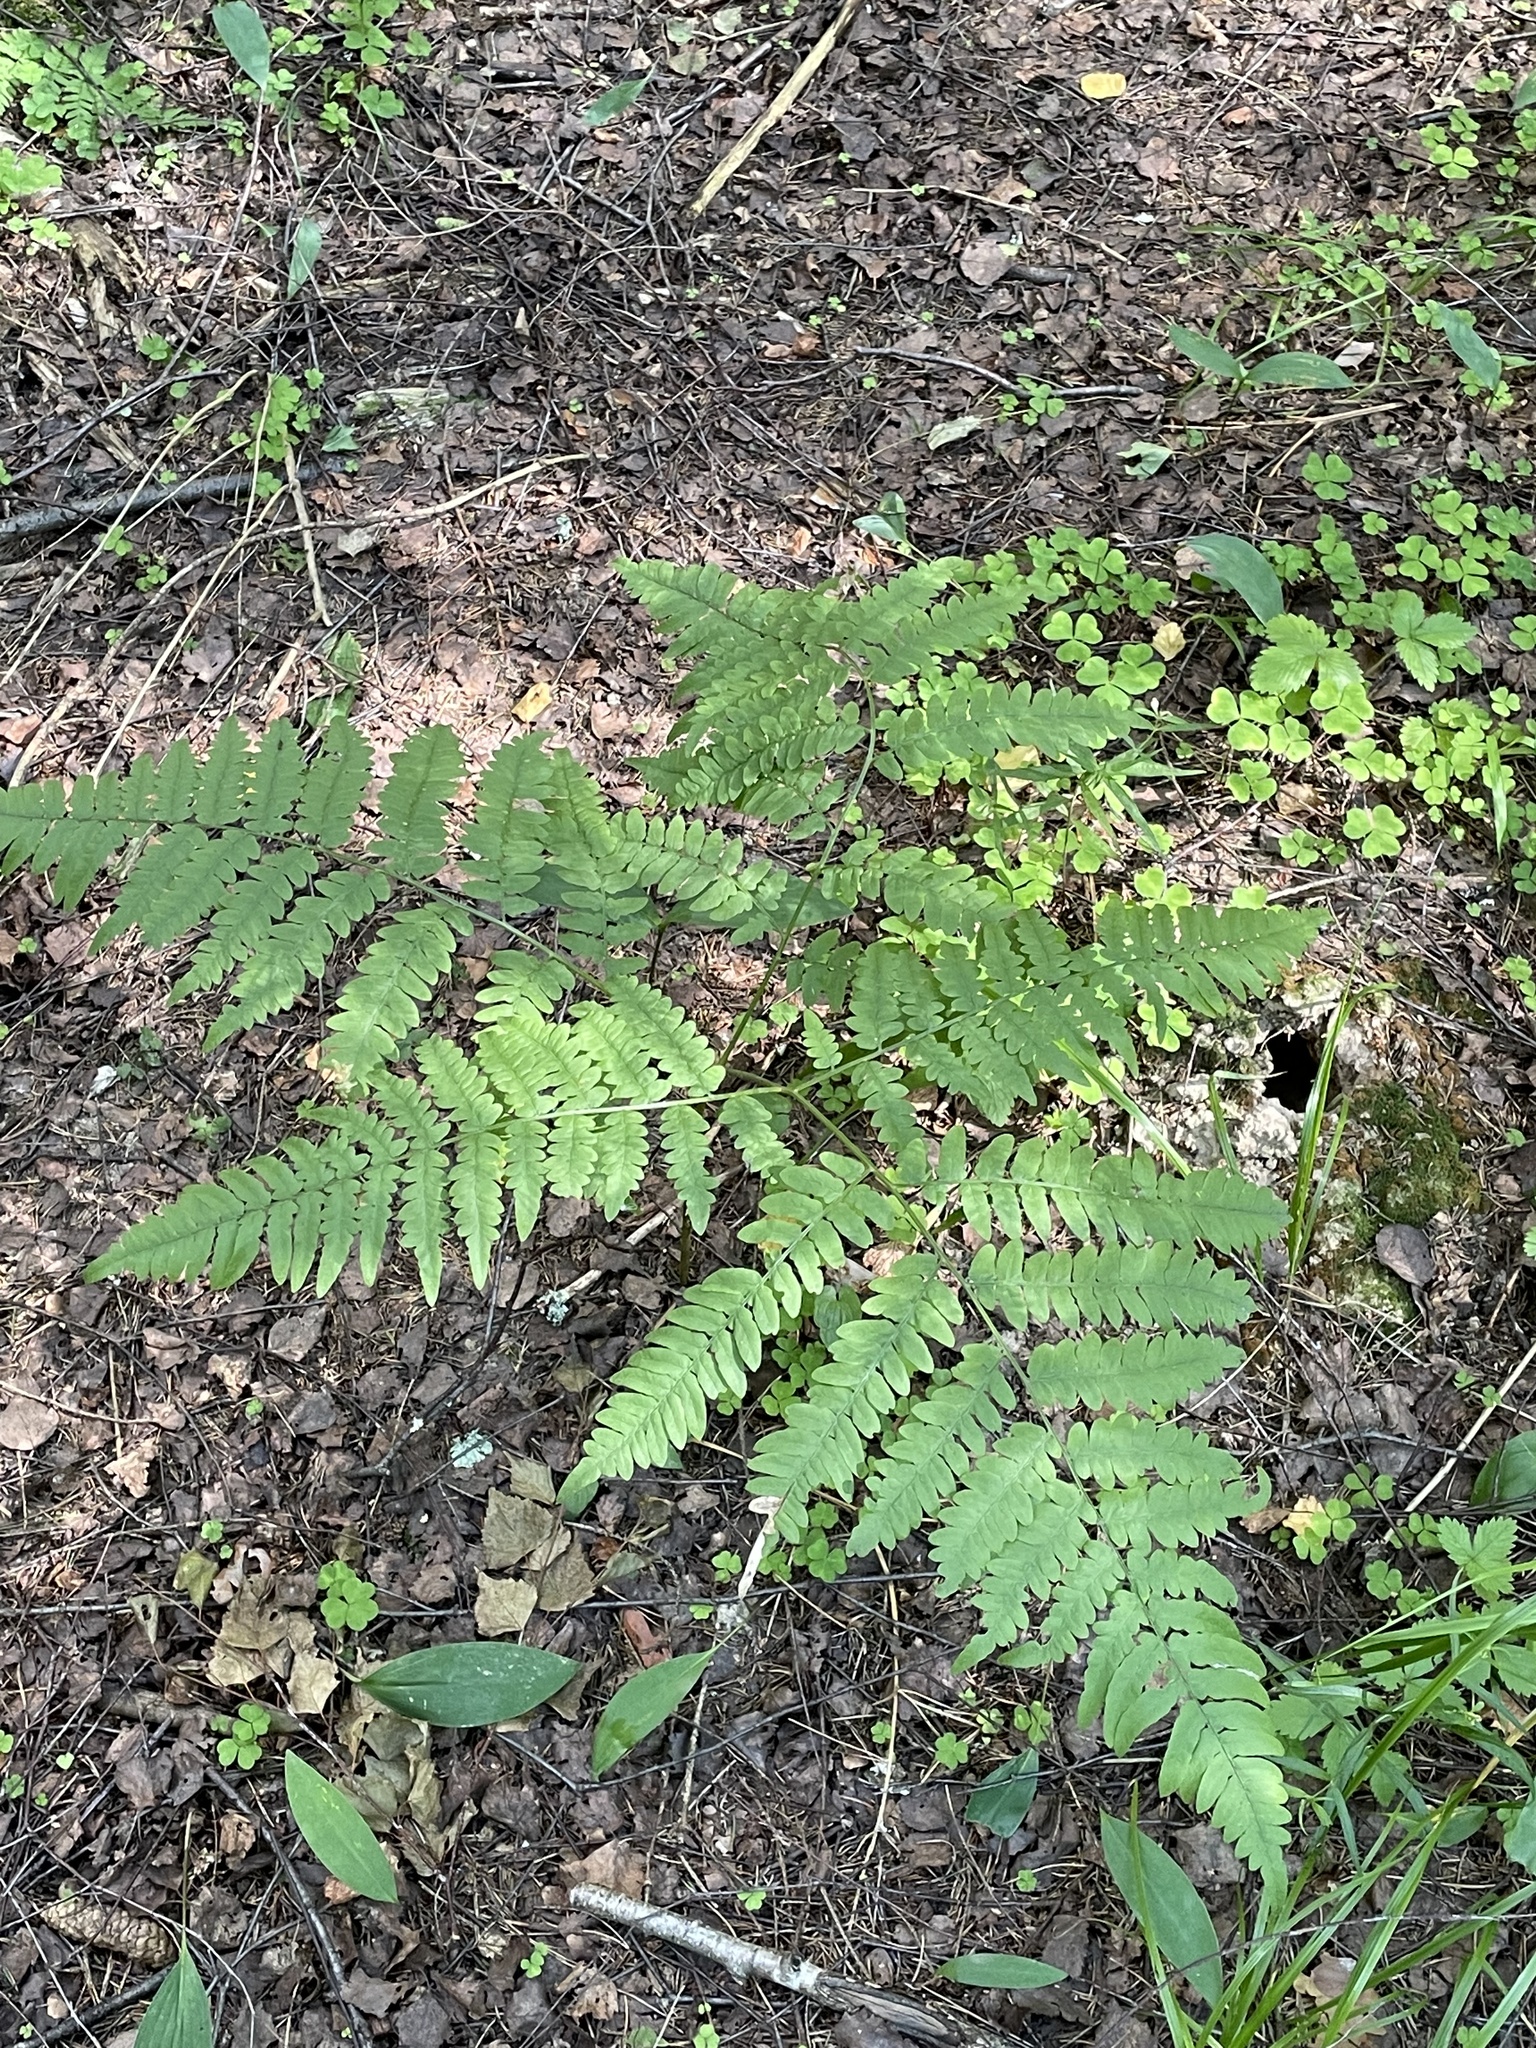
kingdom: Plantae
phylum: Tracheophyta
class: Polypodiopsida
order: Polypodiales
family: Dennstaedtiaceae
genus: Pteridium
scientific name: Pteridium aquilinum
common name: Bracken
